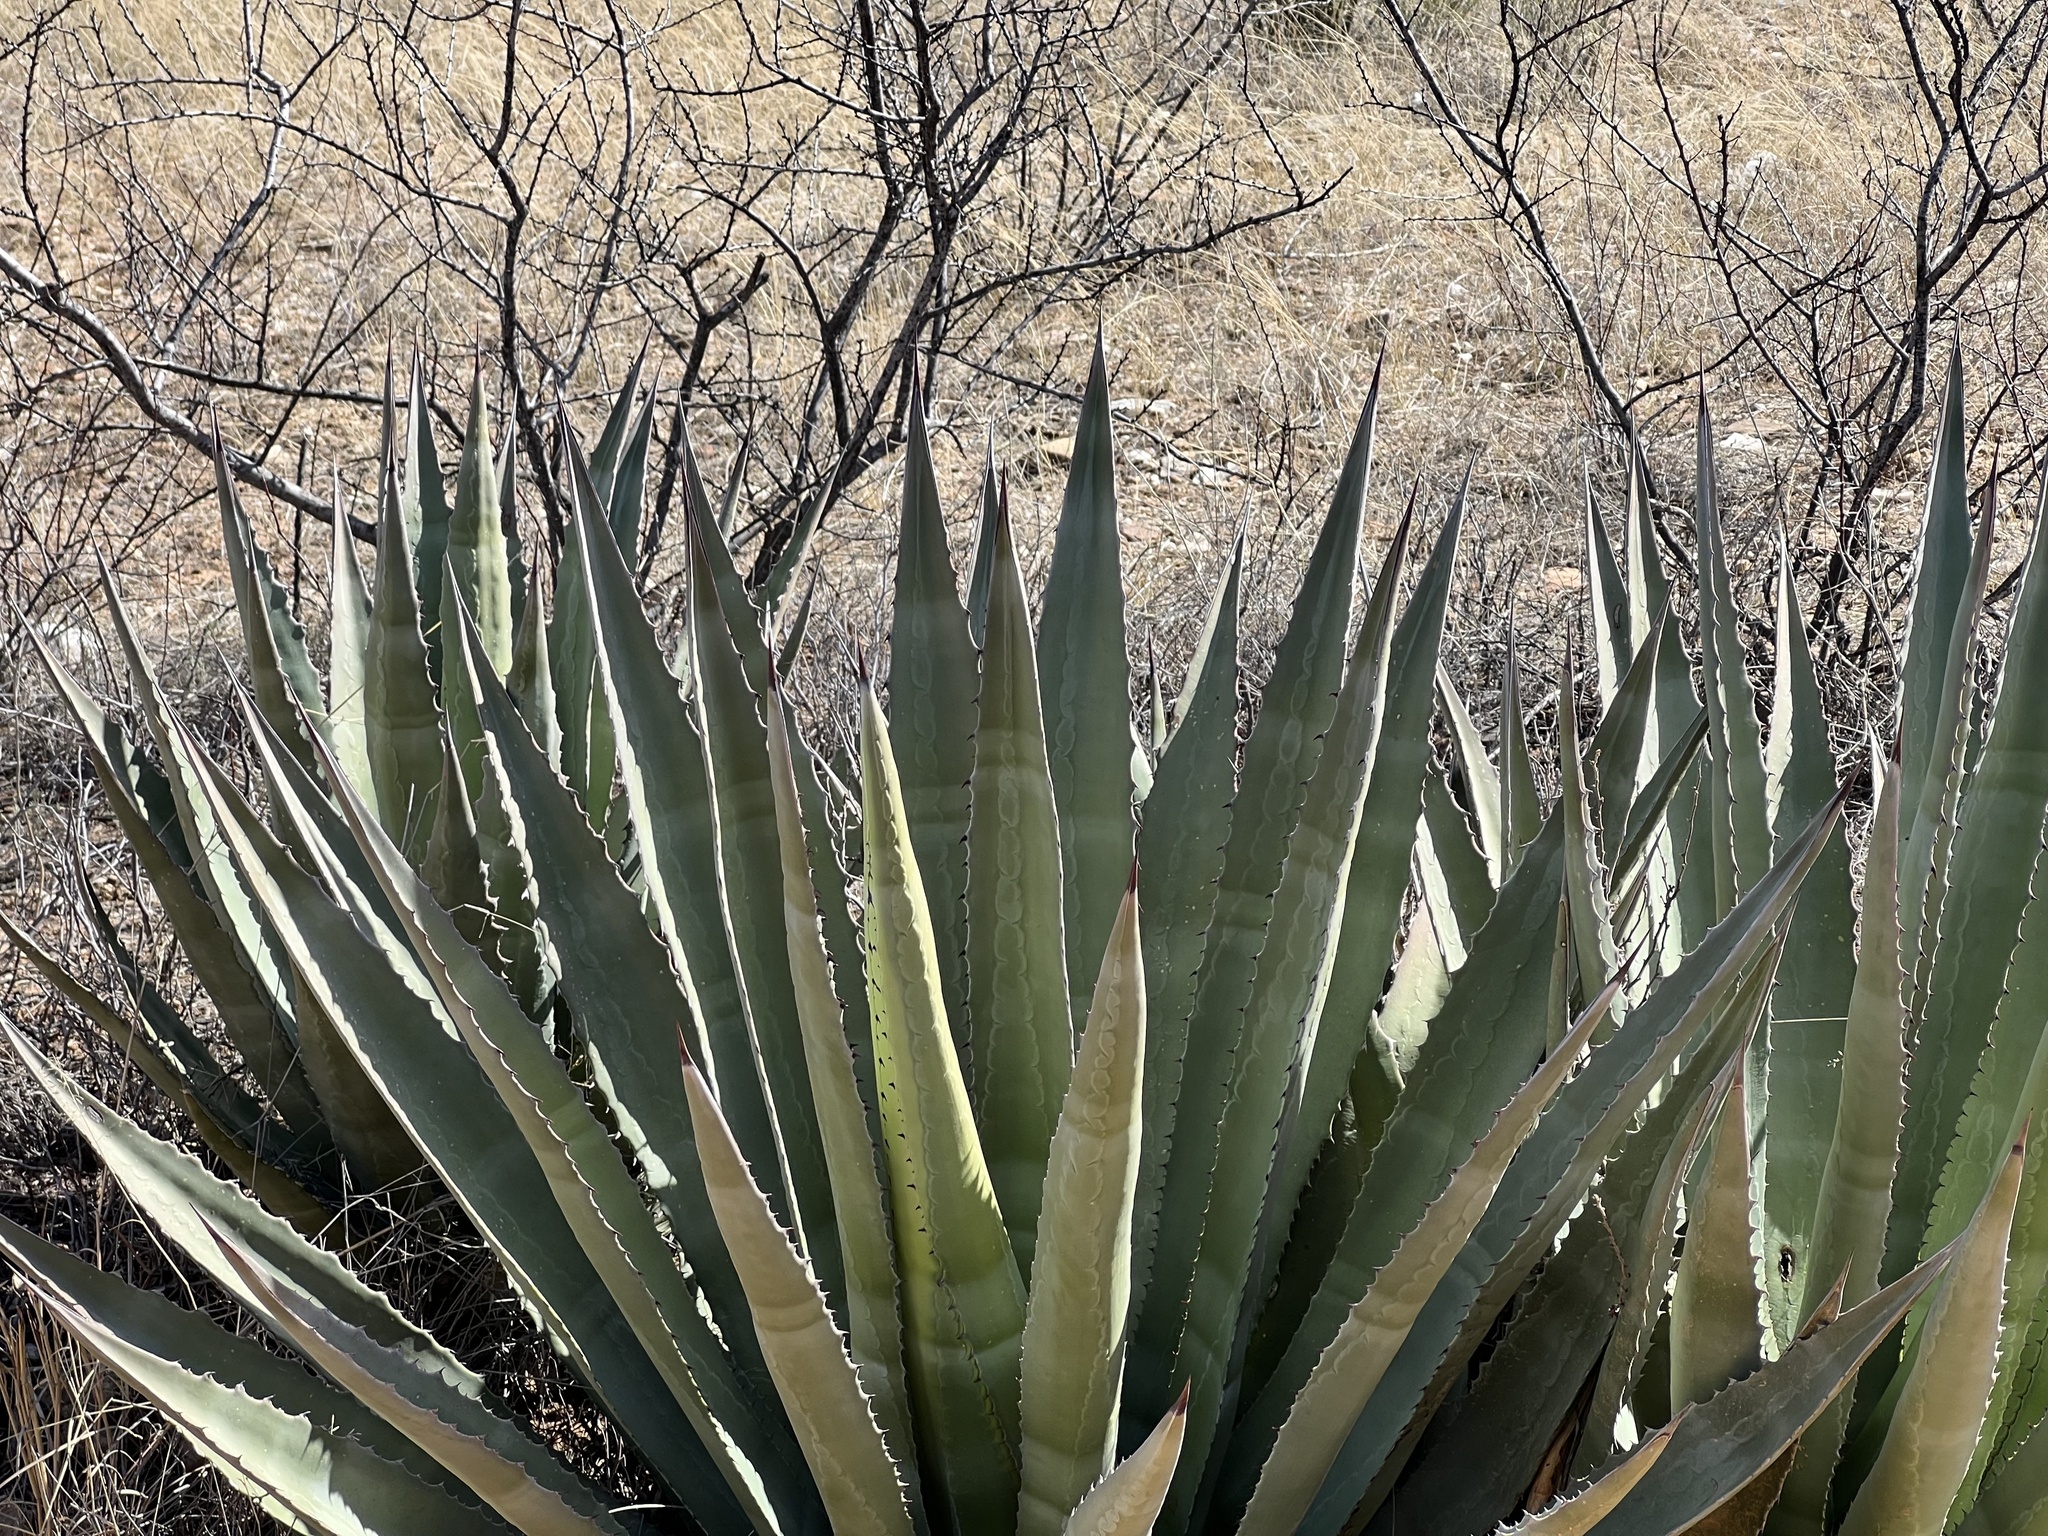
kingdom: Plantae
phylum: Tracheophyta
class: Liliopsida
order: Asparagales
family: Asparagaceae
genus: Agave
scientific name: Agave palmeri
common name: Palmer agave
